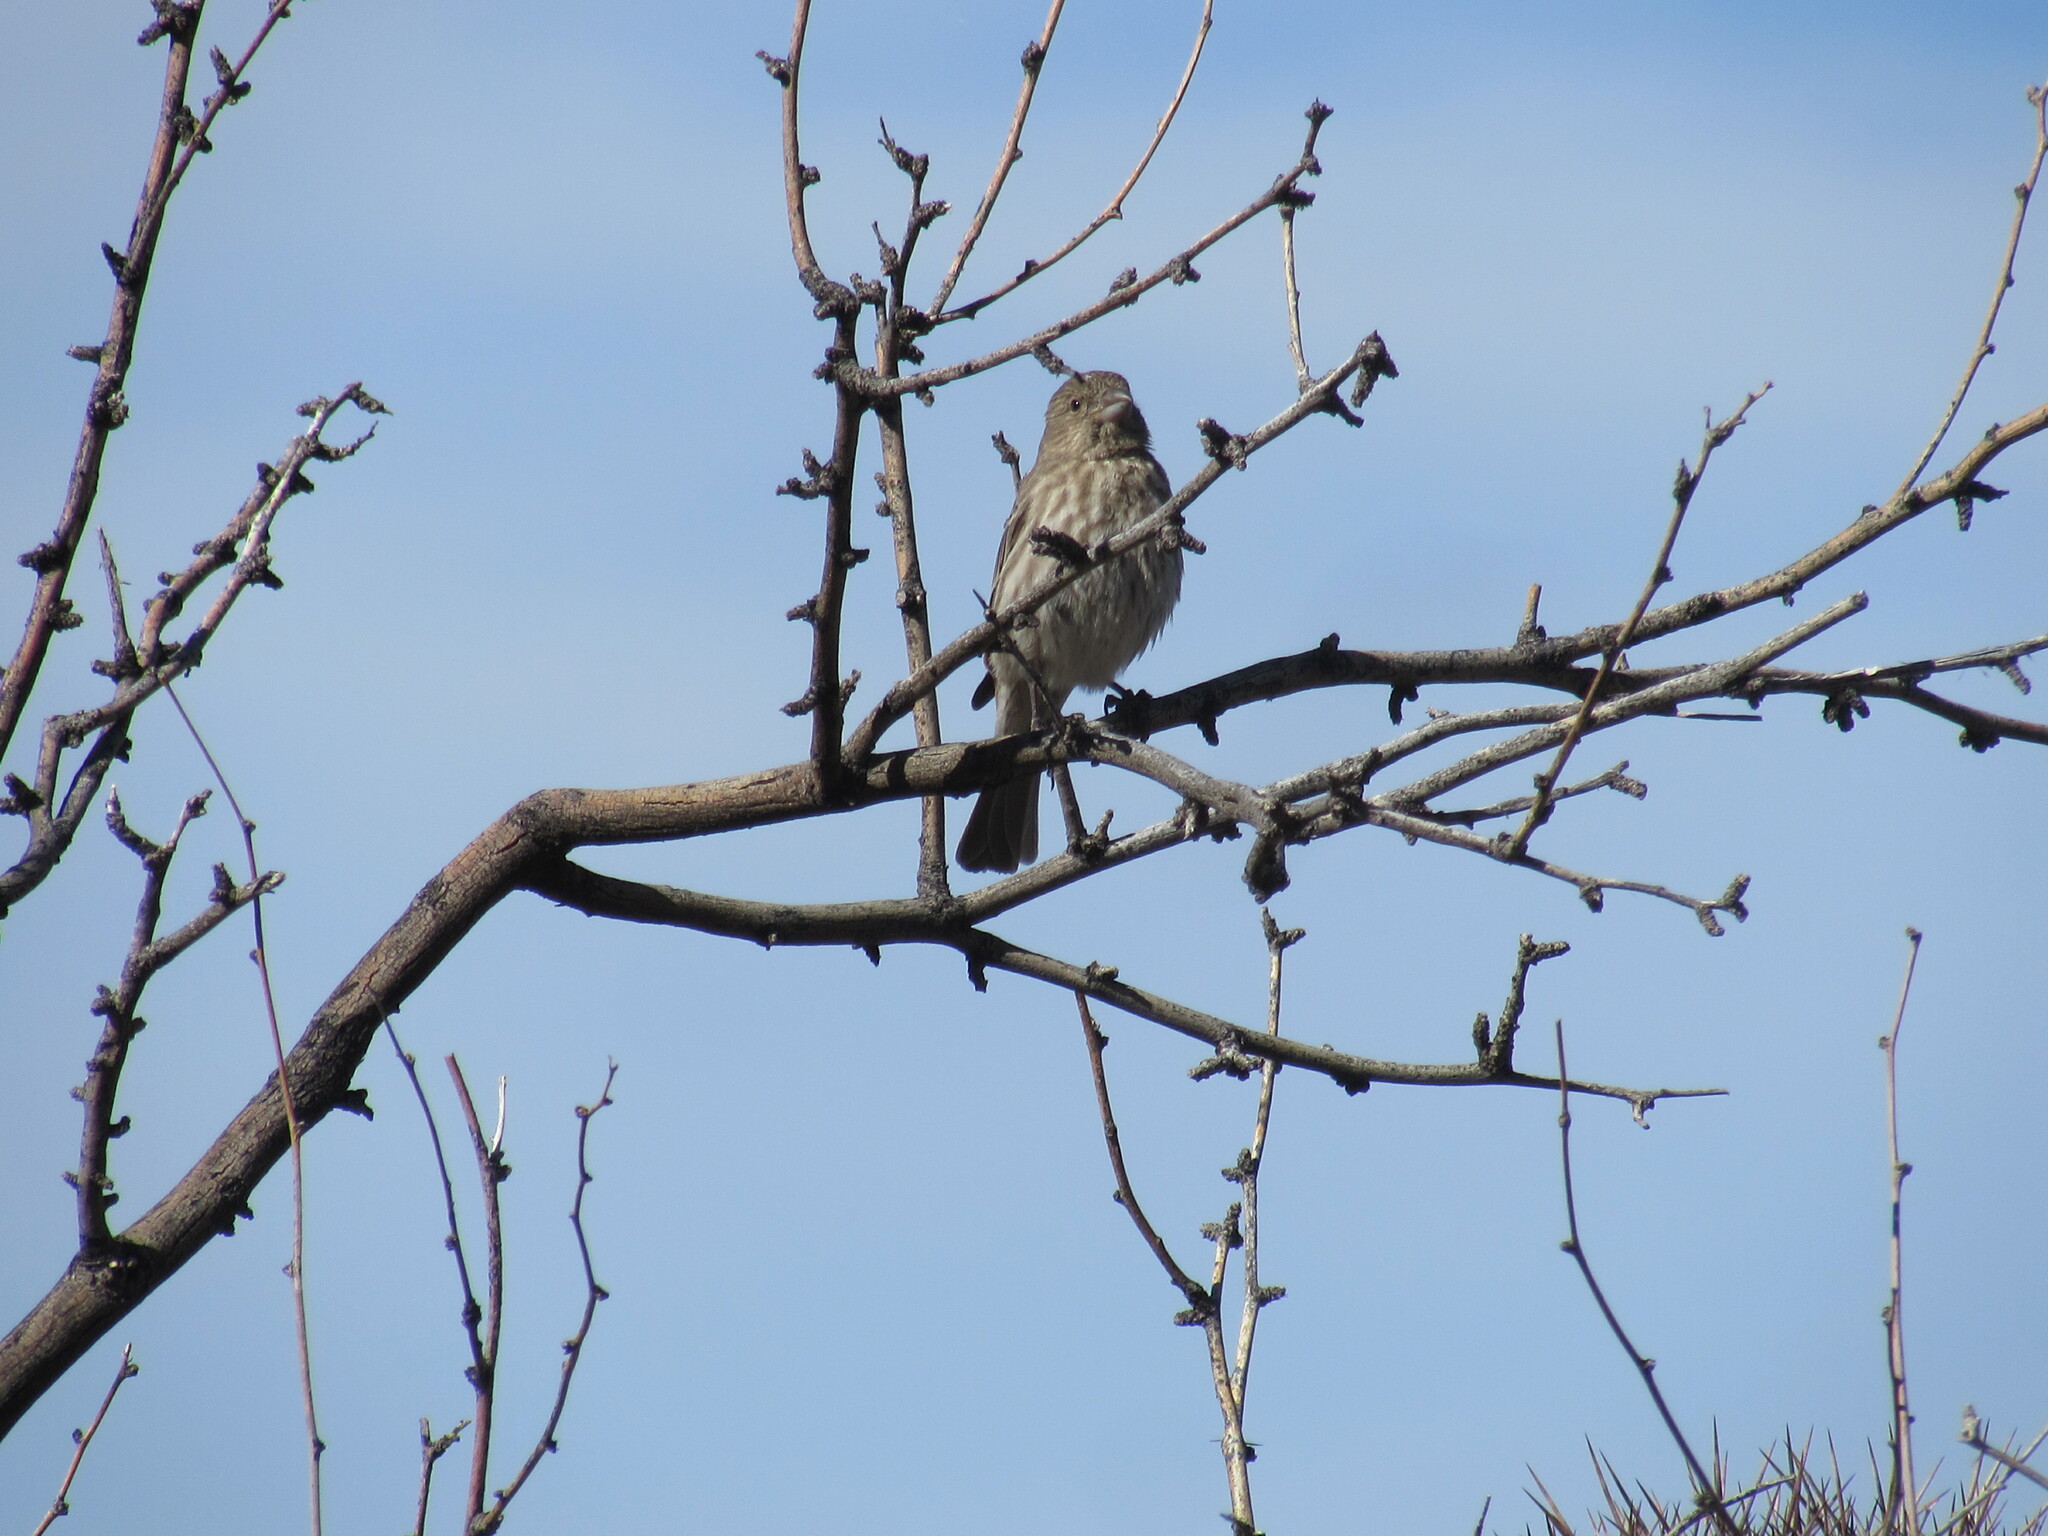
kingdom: Animalia
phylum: Chordata
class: Aves
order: Passeriformes
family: Fringillidae
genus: Haemorhous
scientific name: Haemorhous mexicanus
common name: House finch
